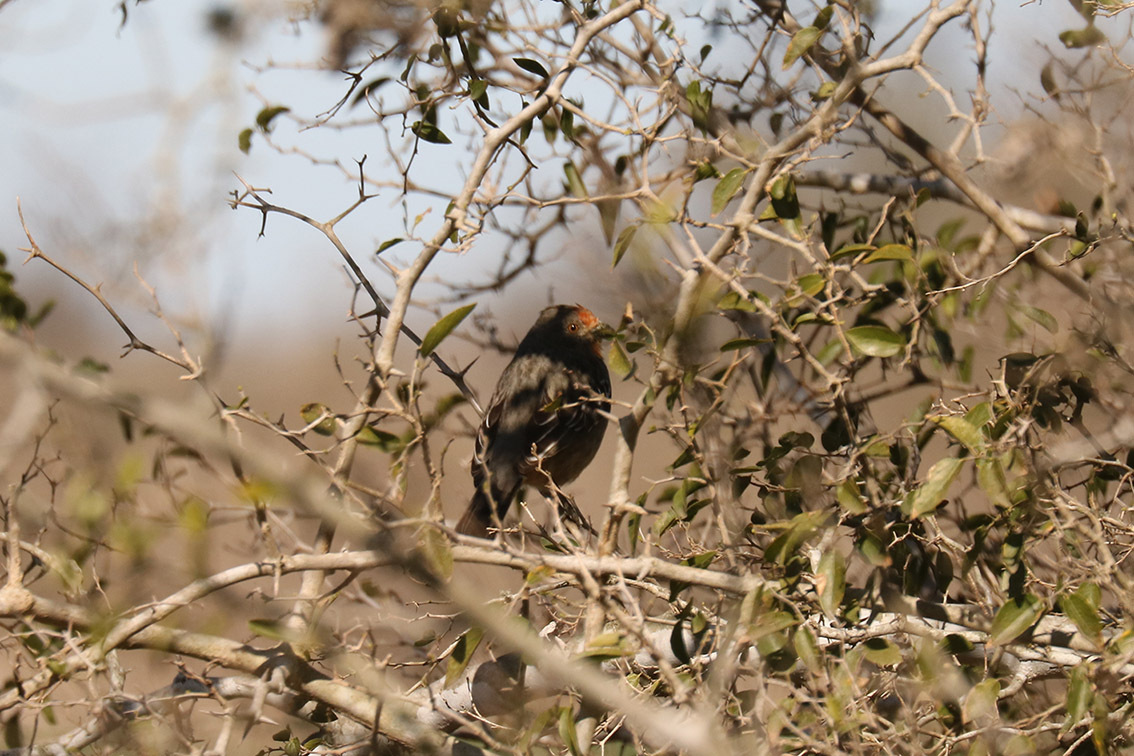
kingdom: Animalia
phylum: Chordata
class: Aves
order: Passeriformes
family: Cotingidae
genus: Phytotoma
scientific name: Phytotoma rutila
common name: White-tipped plantcutter
